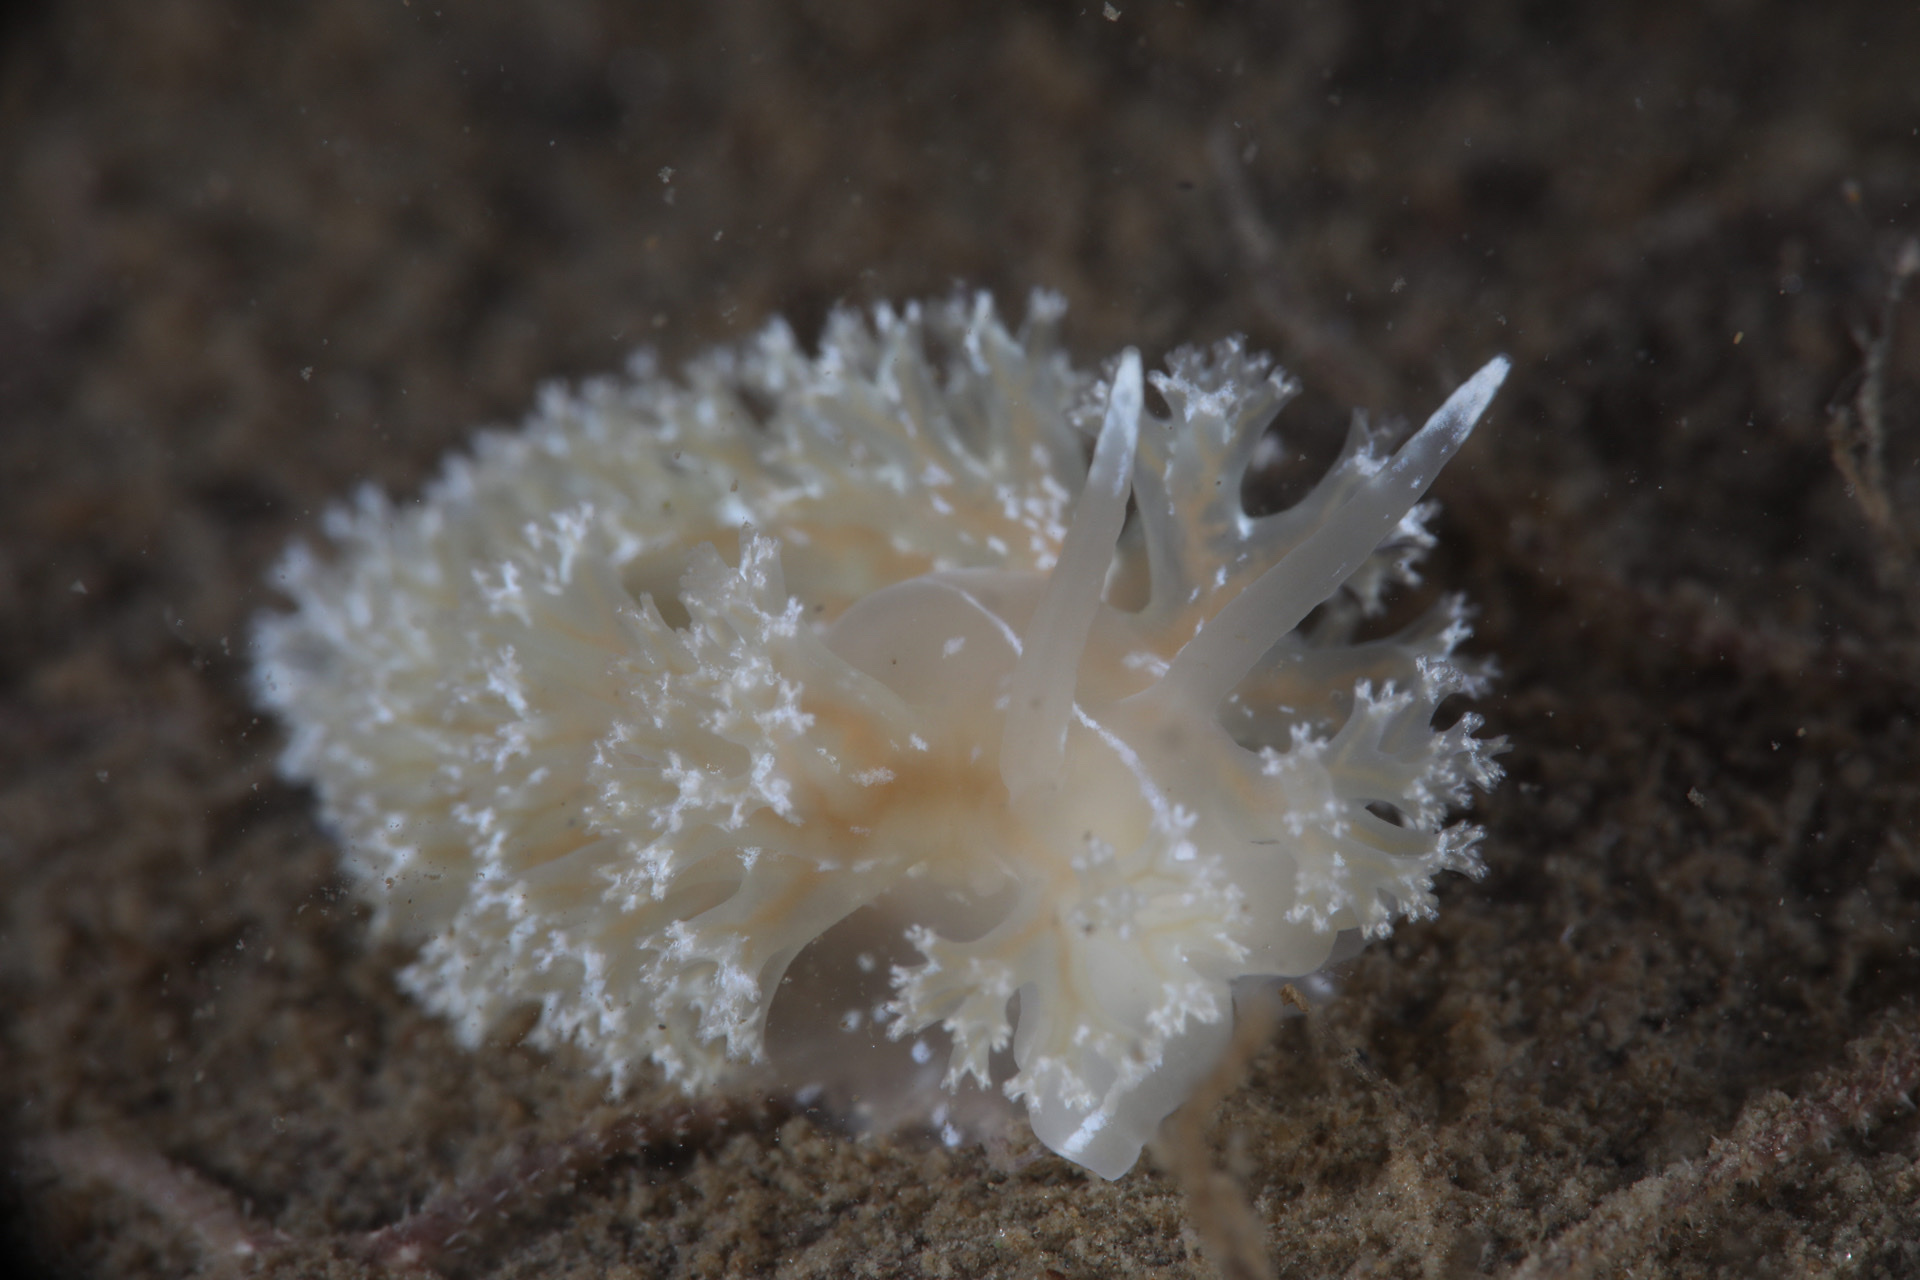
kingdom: Animalia
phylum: Mollusca
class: Gastropoda
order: Nudibranchia
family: Heroidae
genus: Hero
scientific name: Hero formosa
